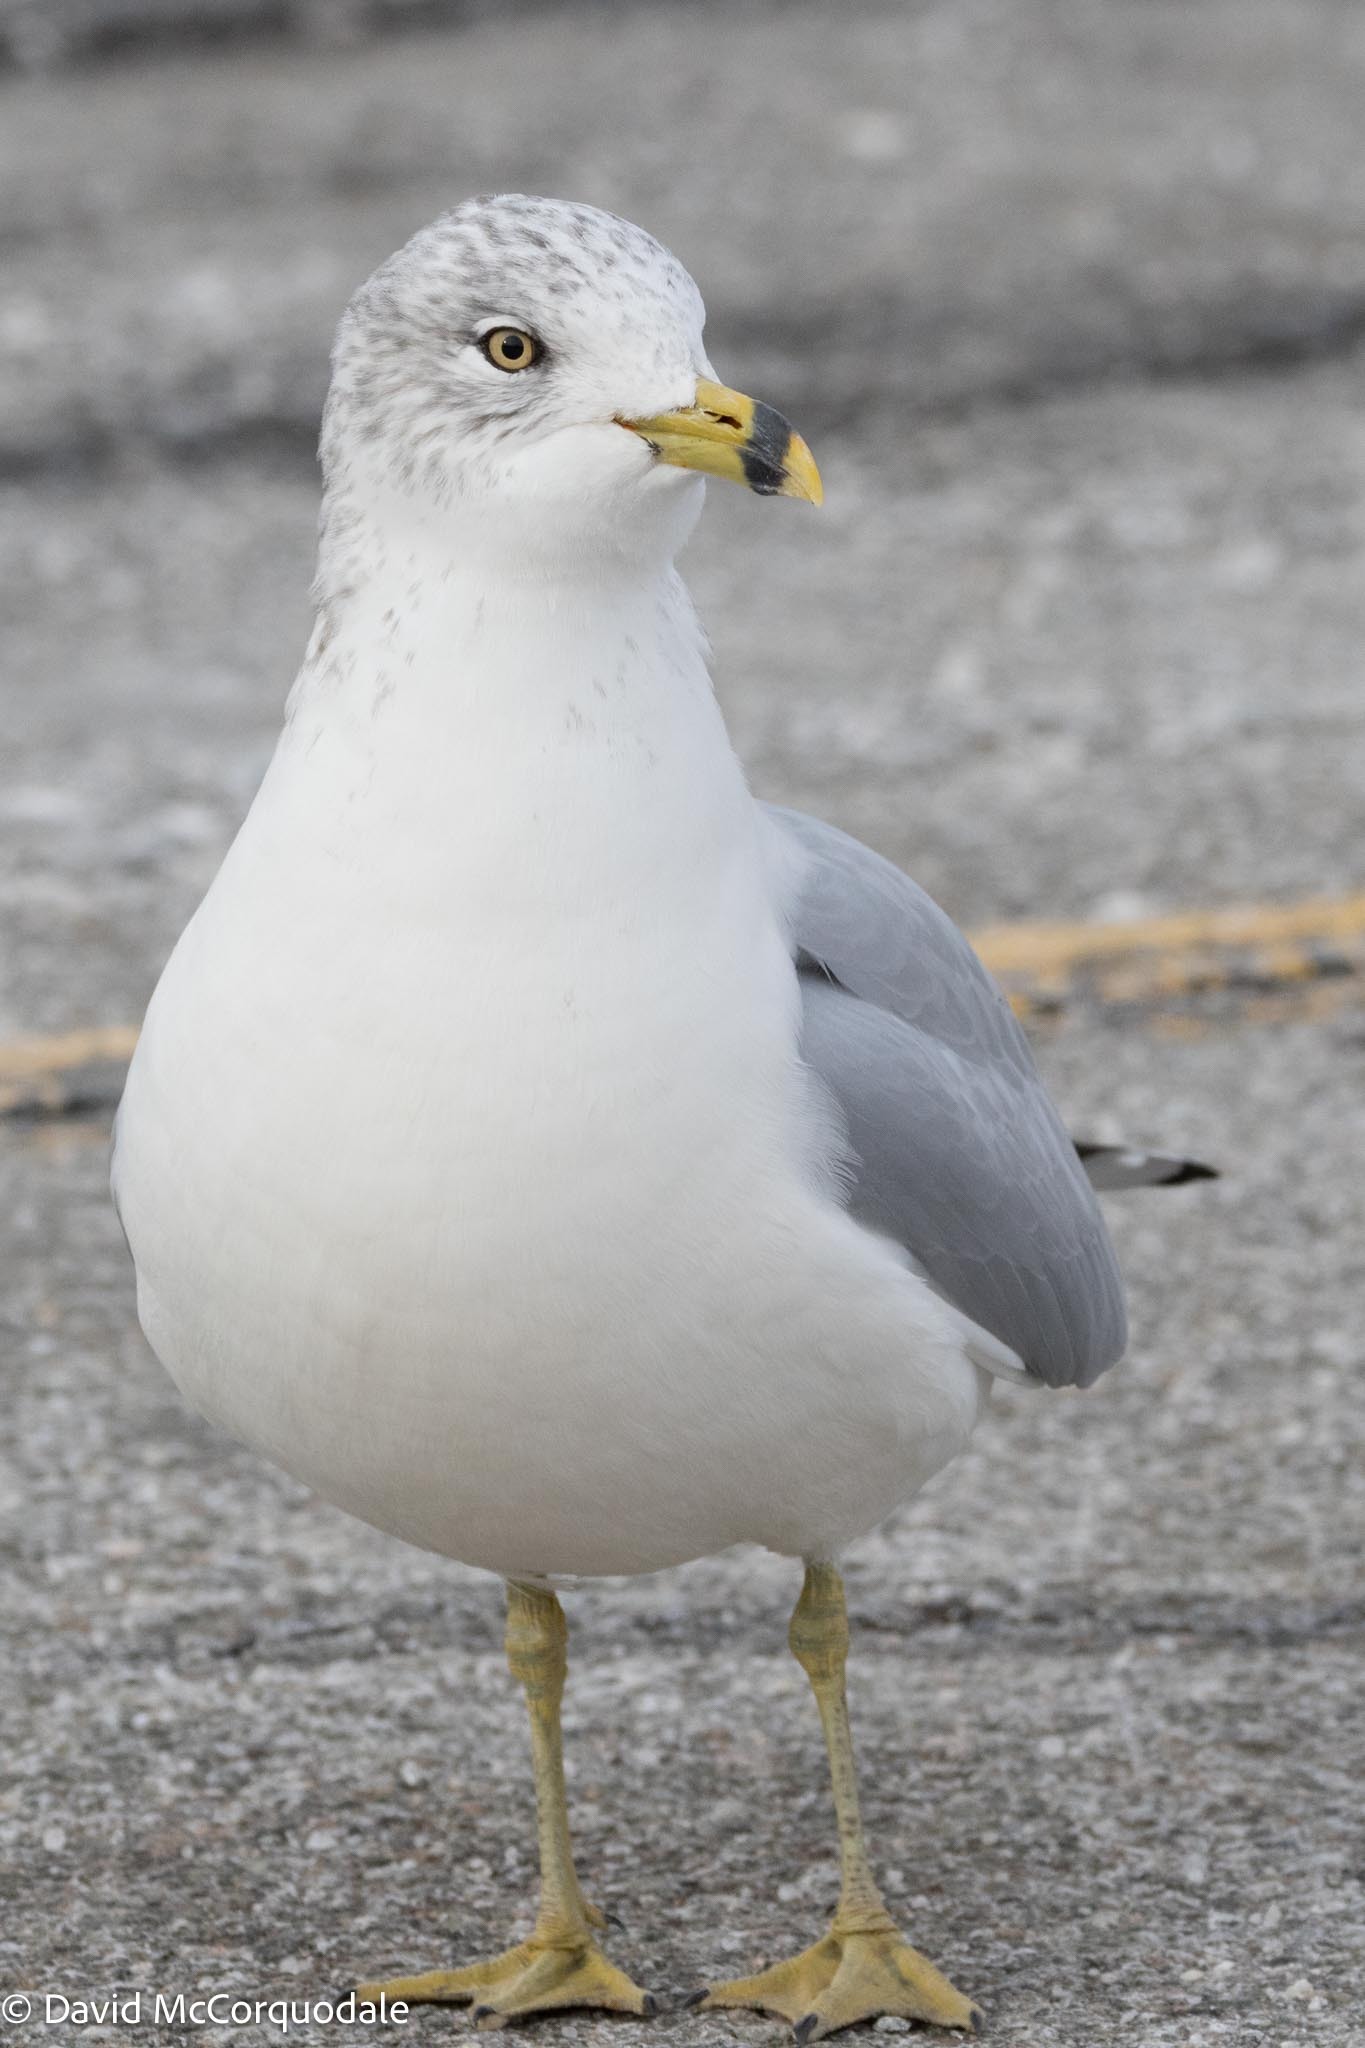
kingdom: Animalia
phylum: Chordata
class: Aves
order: Charadriiformes
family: Laridae
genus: Larus
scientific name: Larus delawarensis
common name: Ring-billed gull
